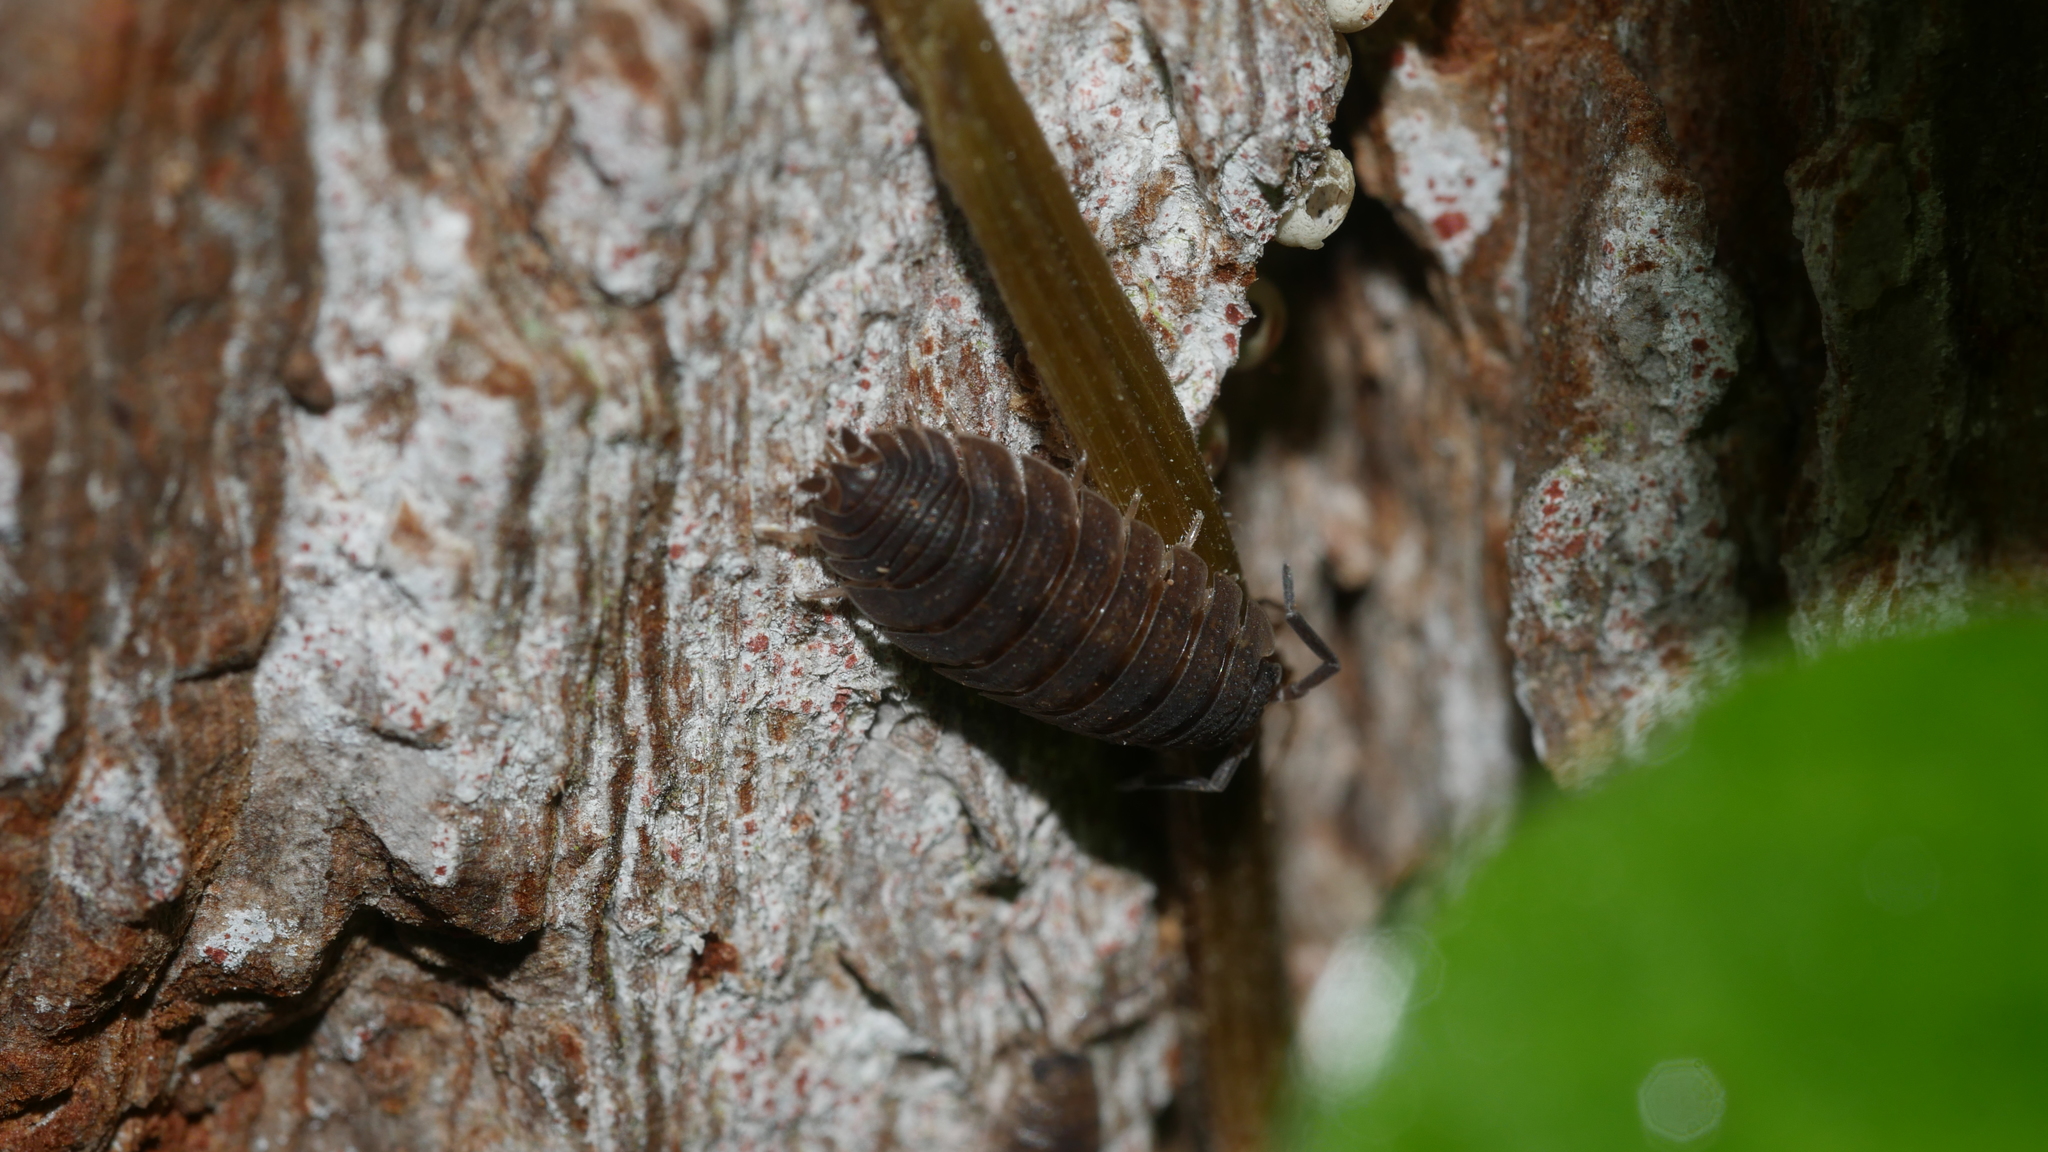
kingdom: Animalia
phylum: Arthropoda
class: Malacostraca
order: Isopoda
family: Porcellionidae
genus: Porcellio
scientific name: Porcellio scaber
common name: Common rough woodlouse
